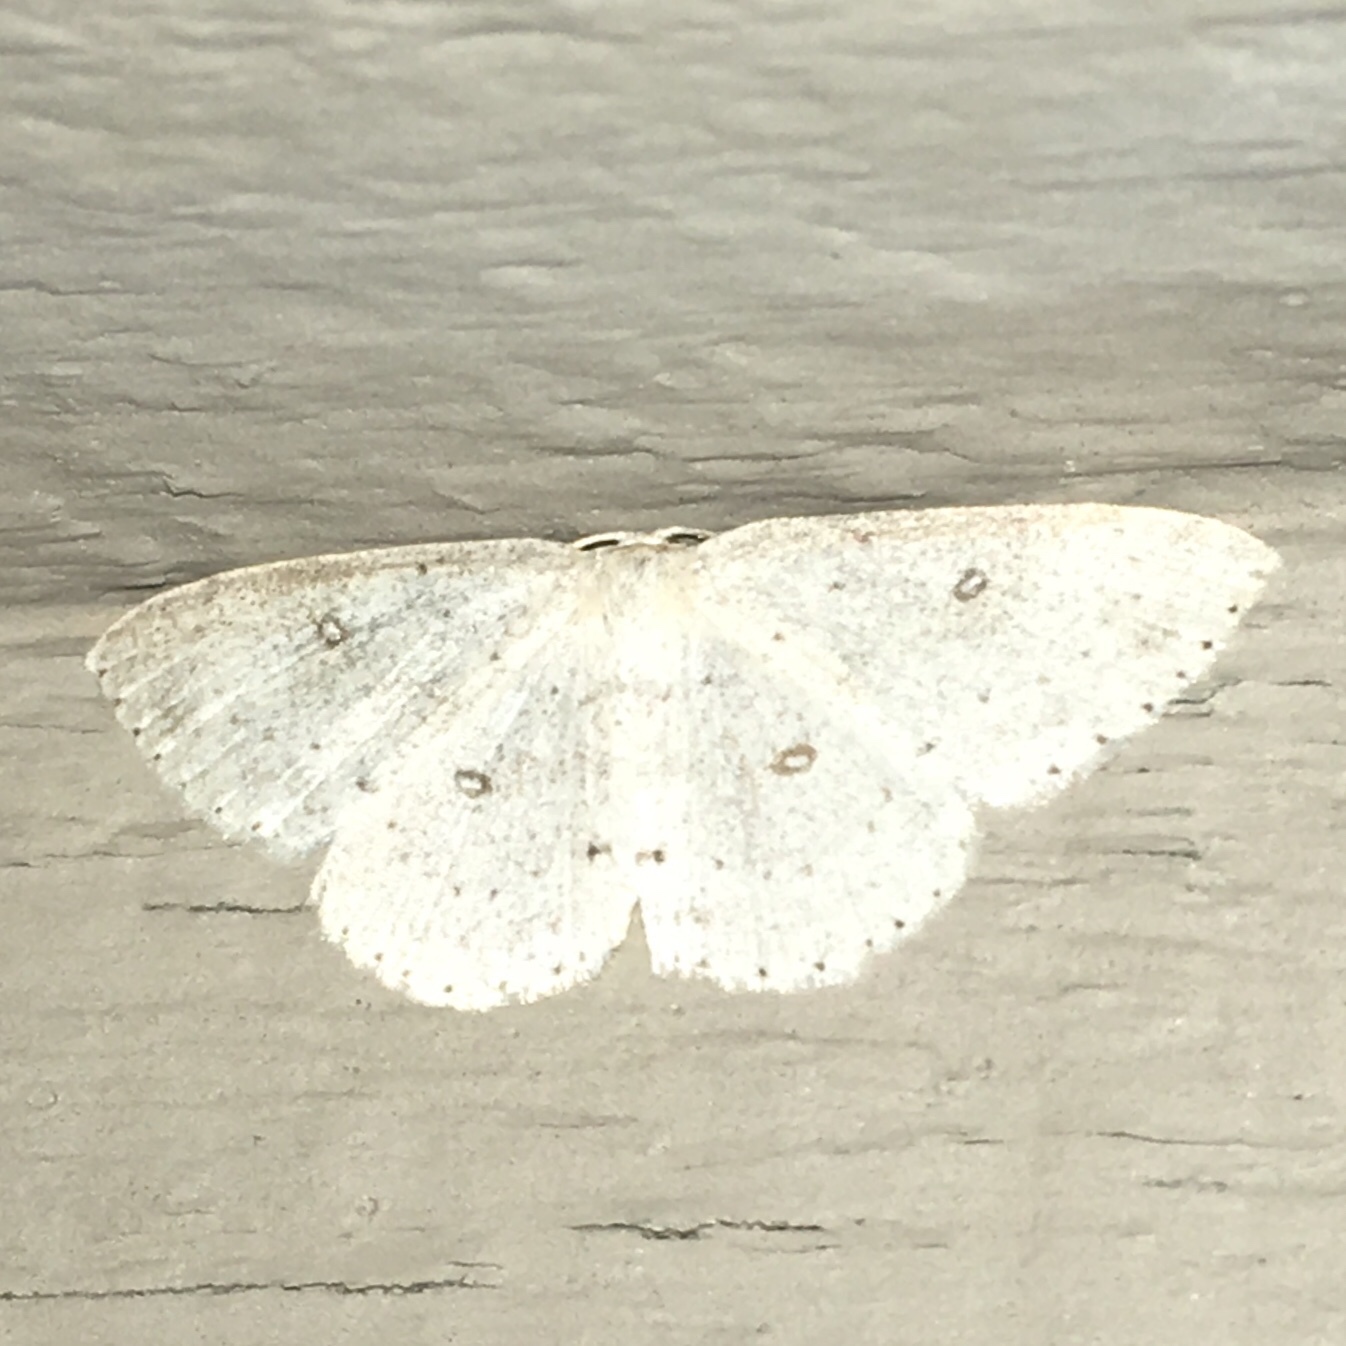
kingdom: Animalia
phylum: Arthropoda
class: Insecta
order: Lepidoptera
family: Geometridae
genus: Cyclophora
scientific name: Cyclophora pendulinaria
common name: Sweet fern geometer
